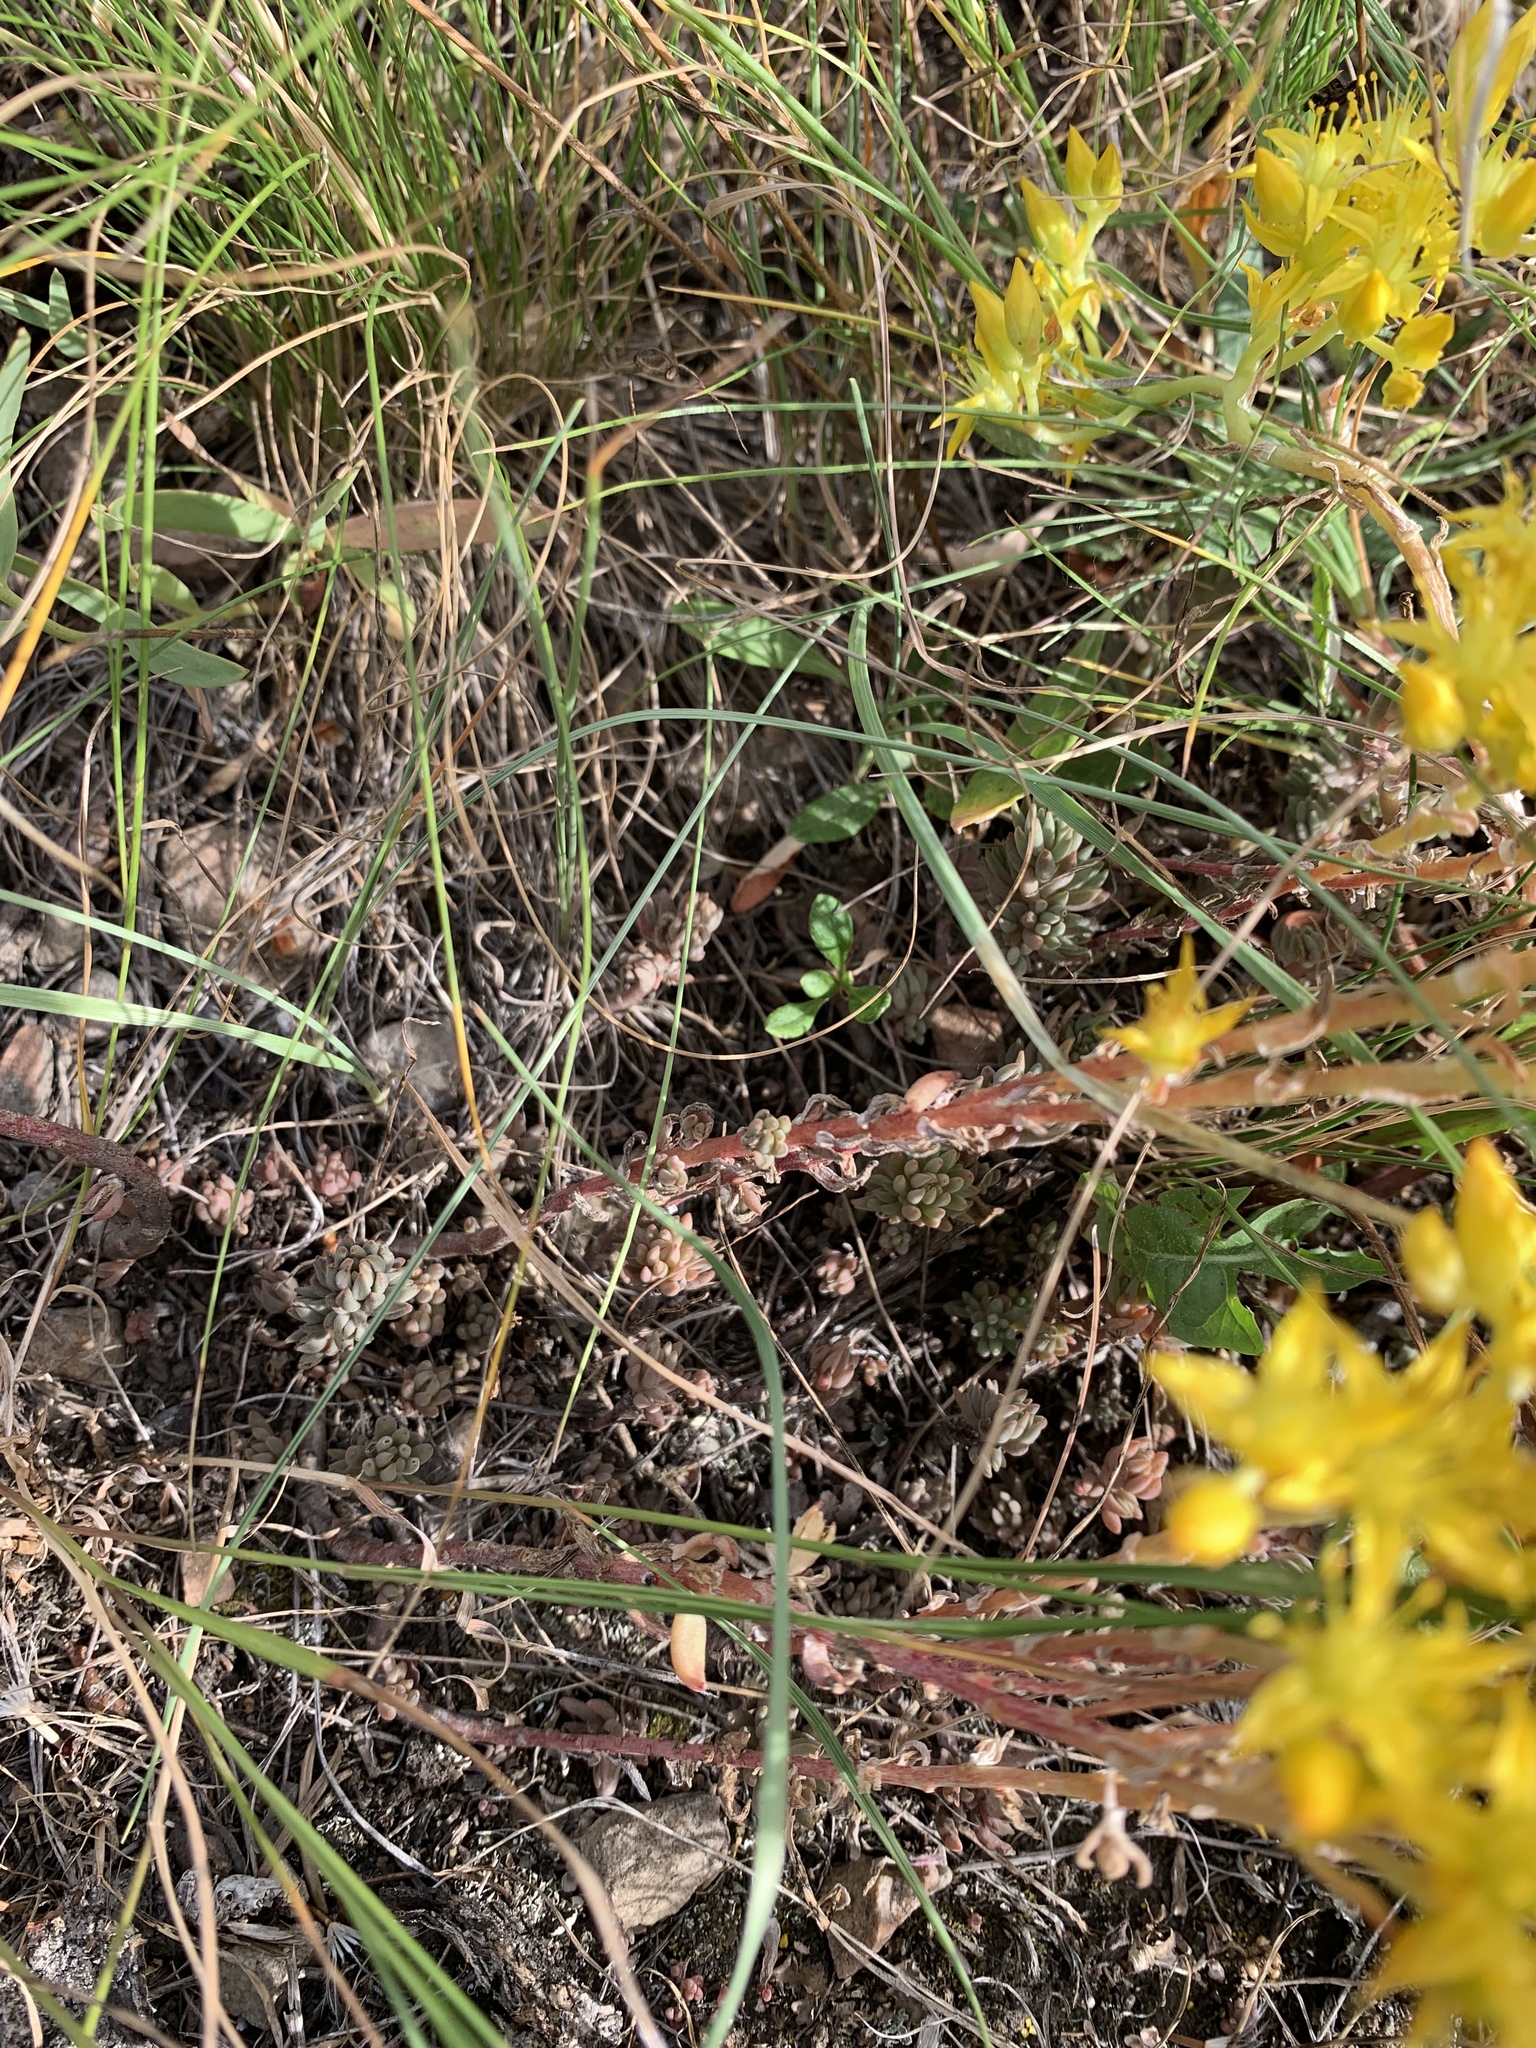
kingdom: Plantae
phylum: Tracheophyta
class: Magnoliopsida
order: Saxifragales
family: Crassulaceae
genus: Sedum
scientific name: Sedum lanceolatum
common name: Common stonecrop
